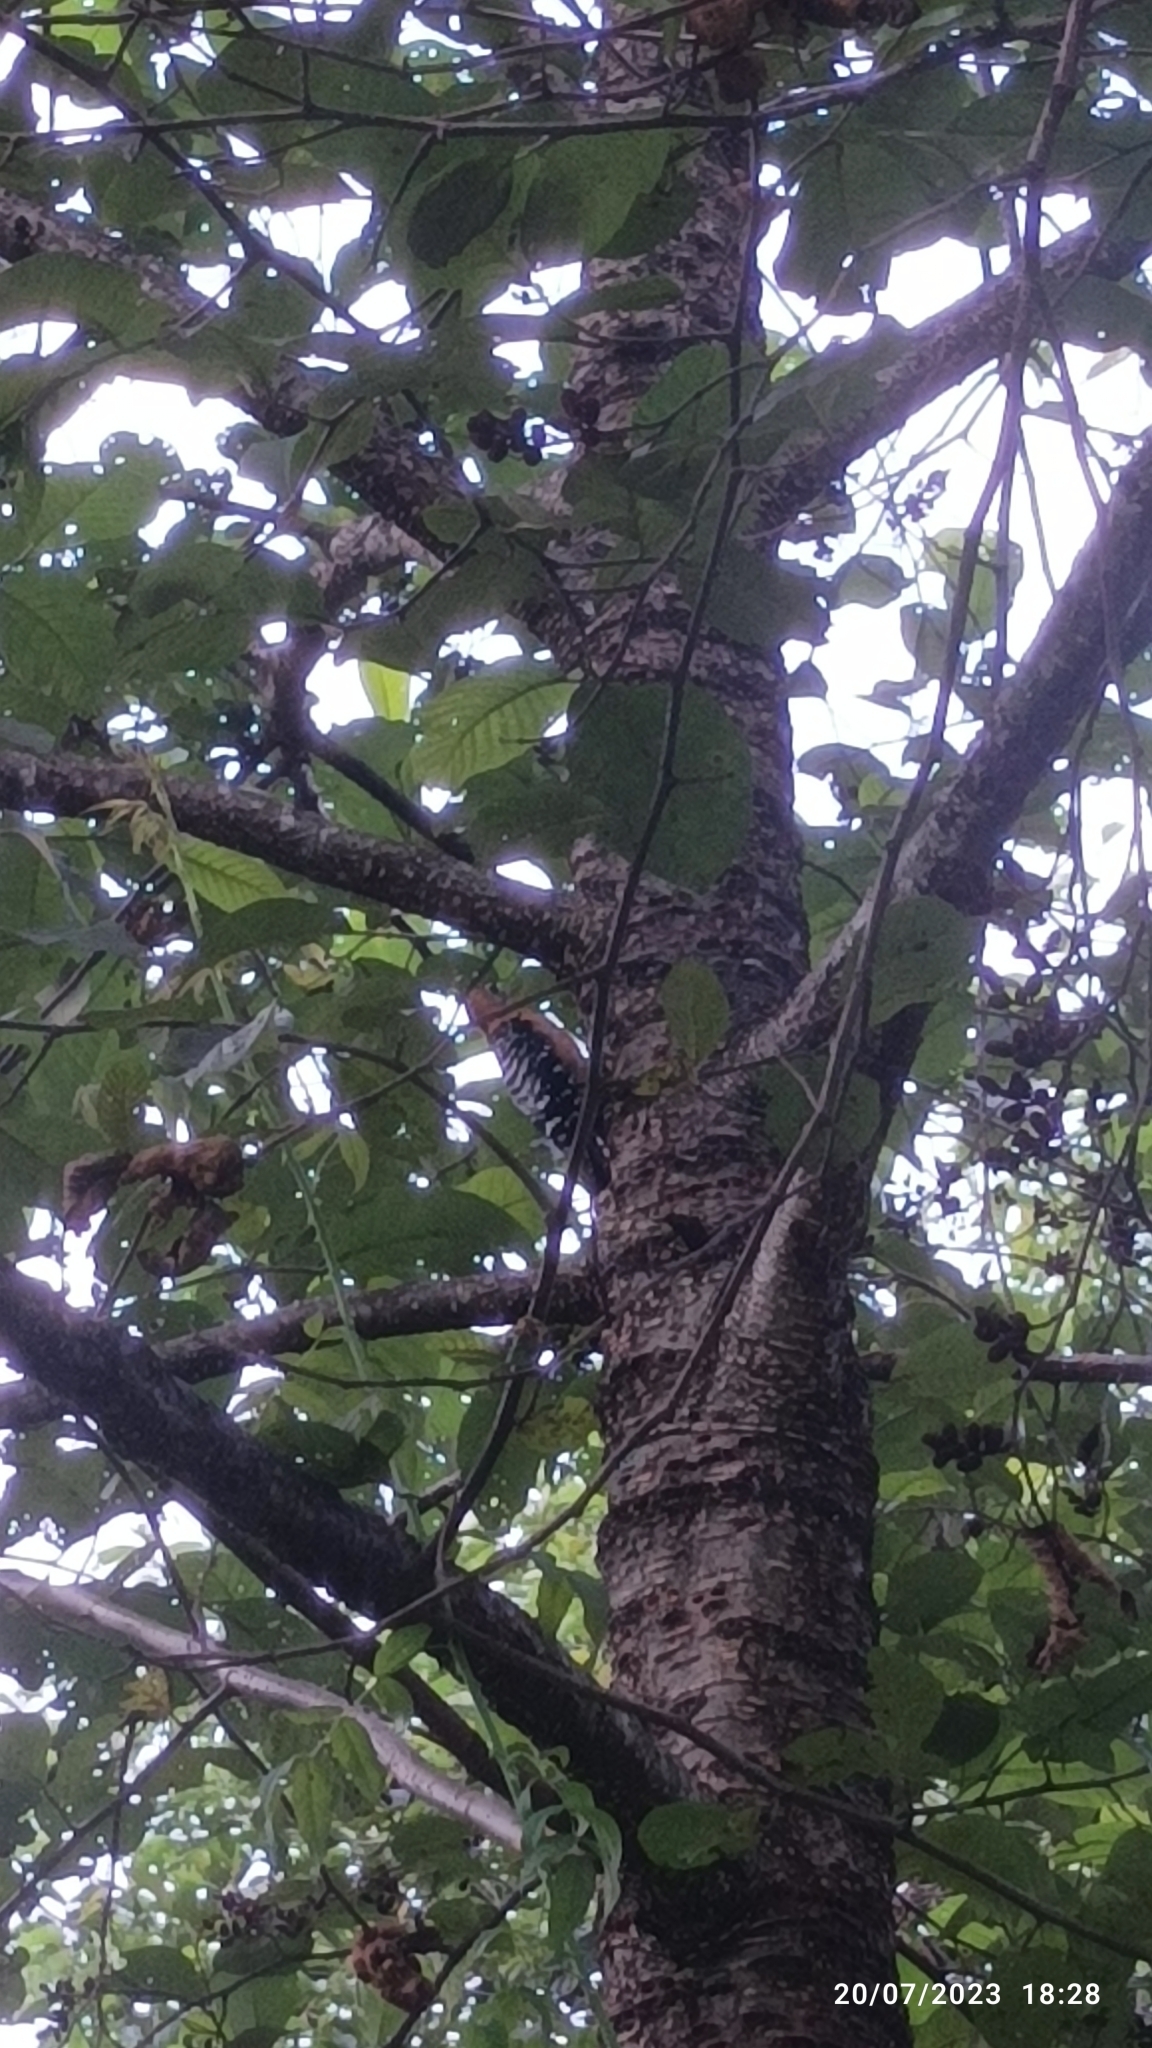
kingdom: Animalia
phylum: Chordata
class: Aves
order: Piciformes
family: Picidae
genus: Dendrocopos
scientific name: Dendrocopos hyperythrus
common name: Rufous-bellied woodpecker
